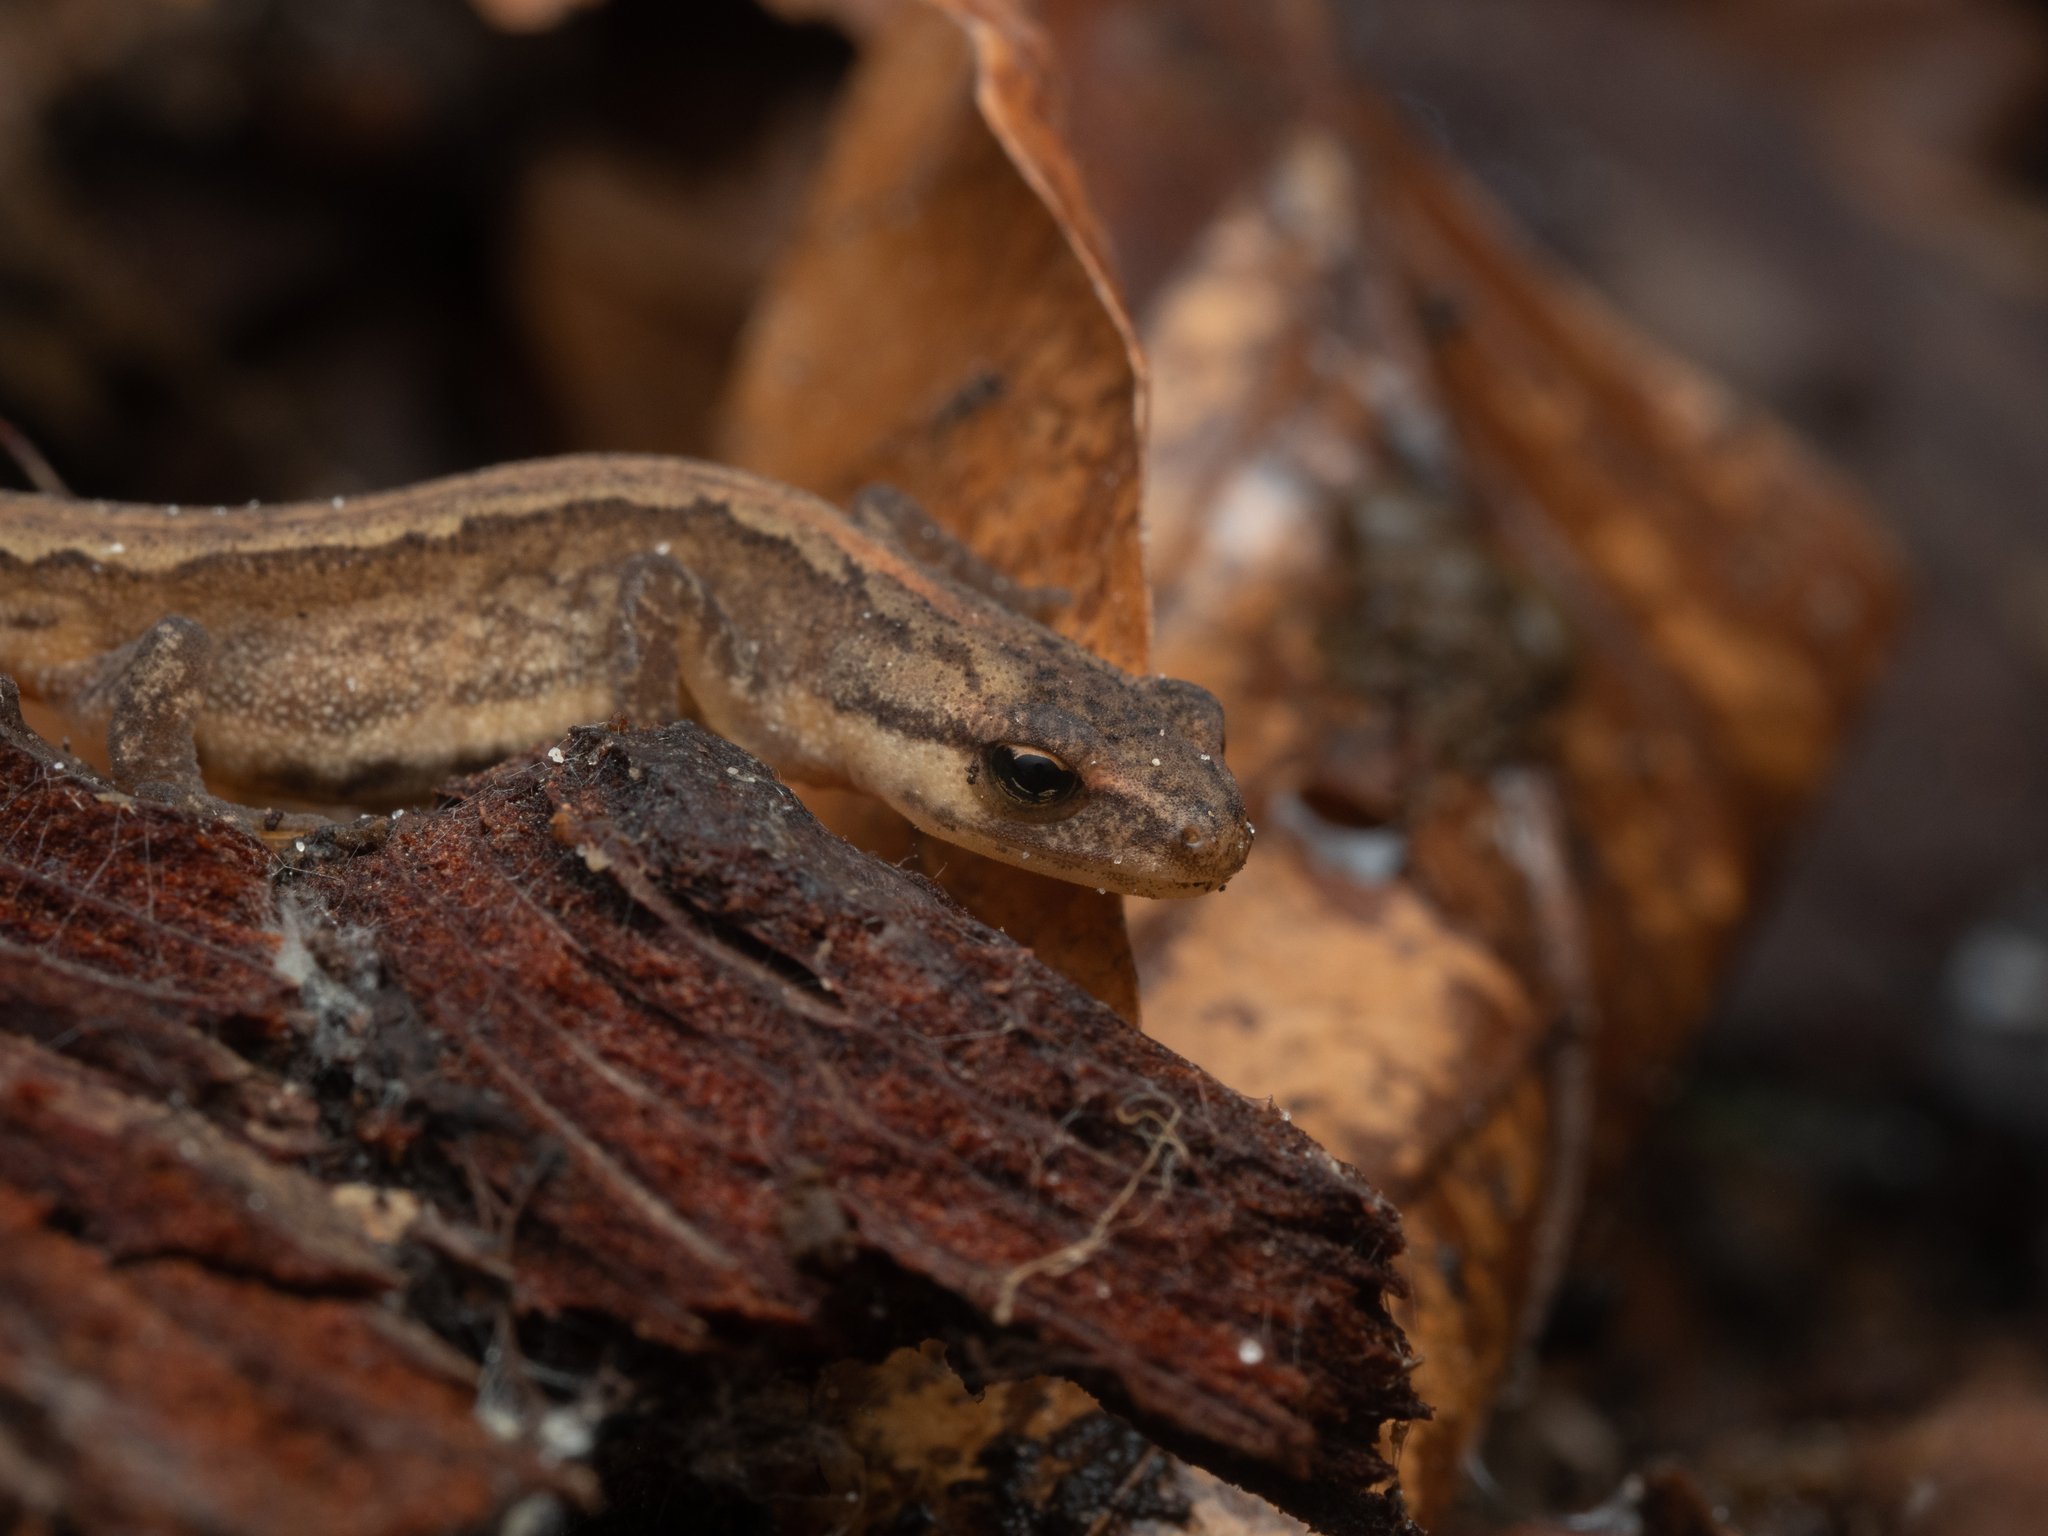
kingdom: Animalia
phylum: Chordata
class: Amphibia
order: Caudata
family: Salamandridae
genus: Lissotriton
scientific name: Lissotriton vulgaris
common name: Smooth newt
